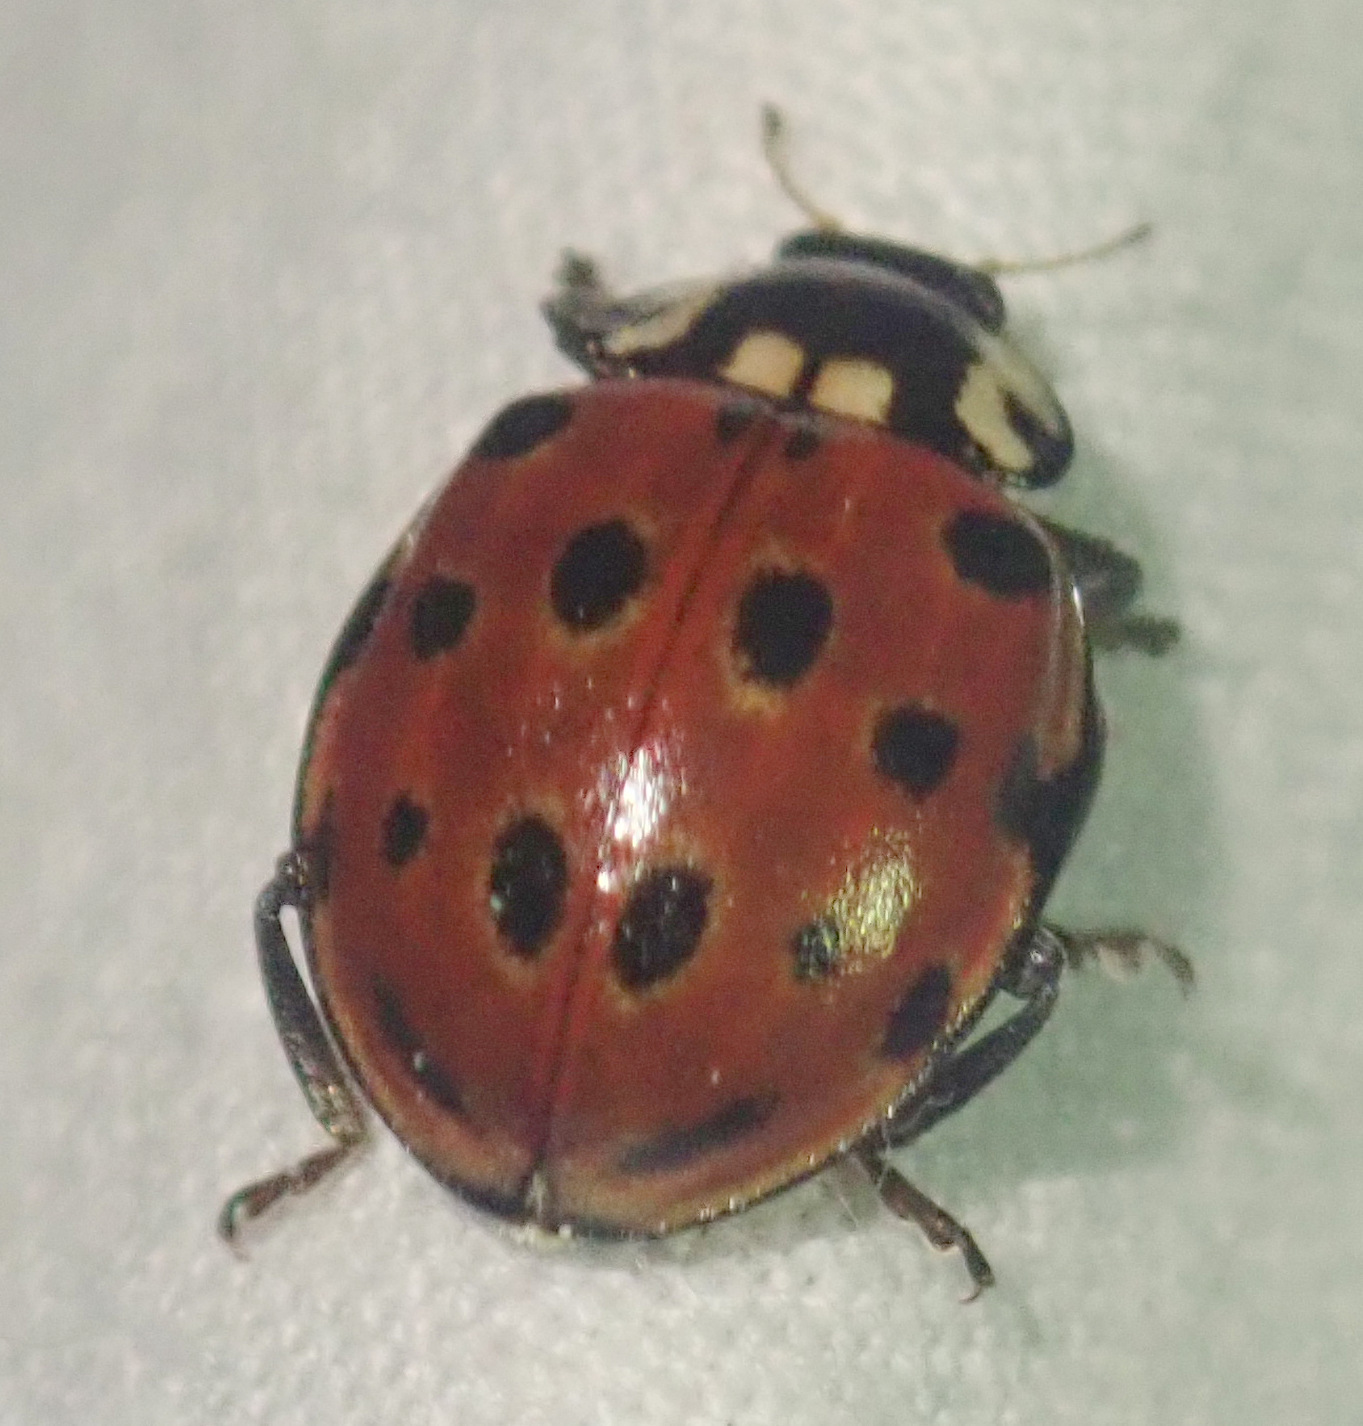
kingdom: Animalia
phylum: Arthropoda
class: Insecta
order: Coleoptera
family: Coccinellidae
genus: Anatis
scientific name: Anatis ocellata
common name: Eyed ladybird
